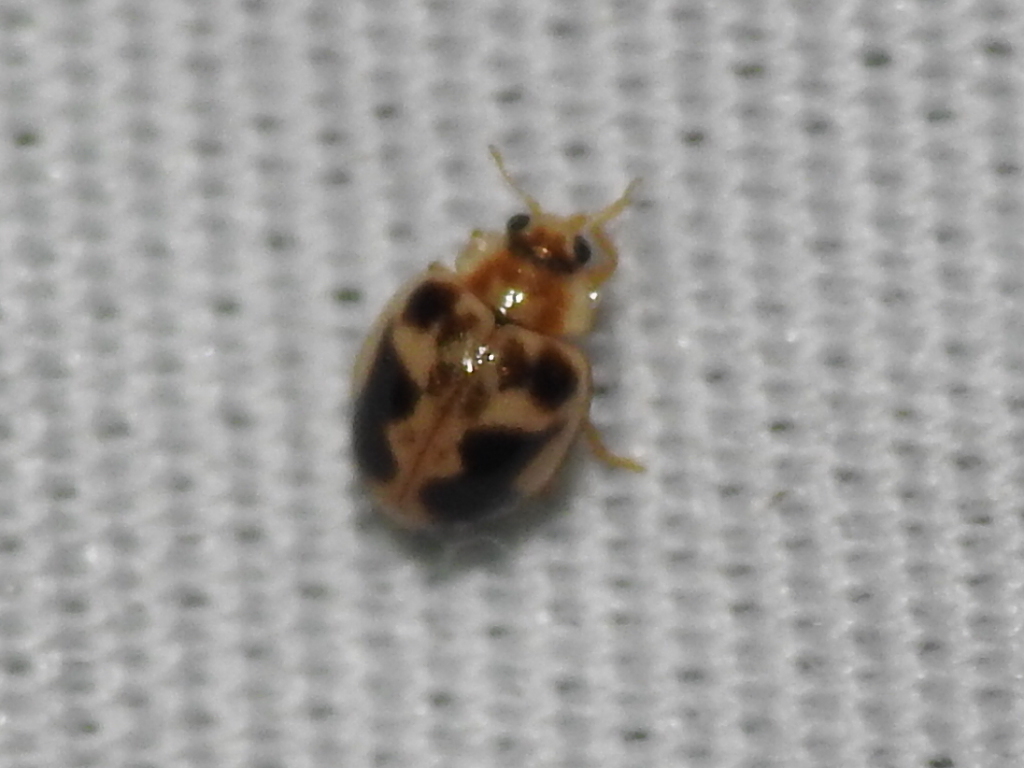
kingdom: Animalia
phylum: Arthropoda
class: Insecta
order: Coleoptera
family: Coccinellidae
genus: Psyllobora
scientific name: Psyllobora renifer
